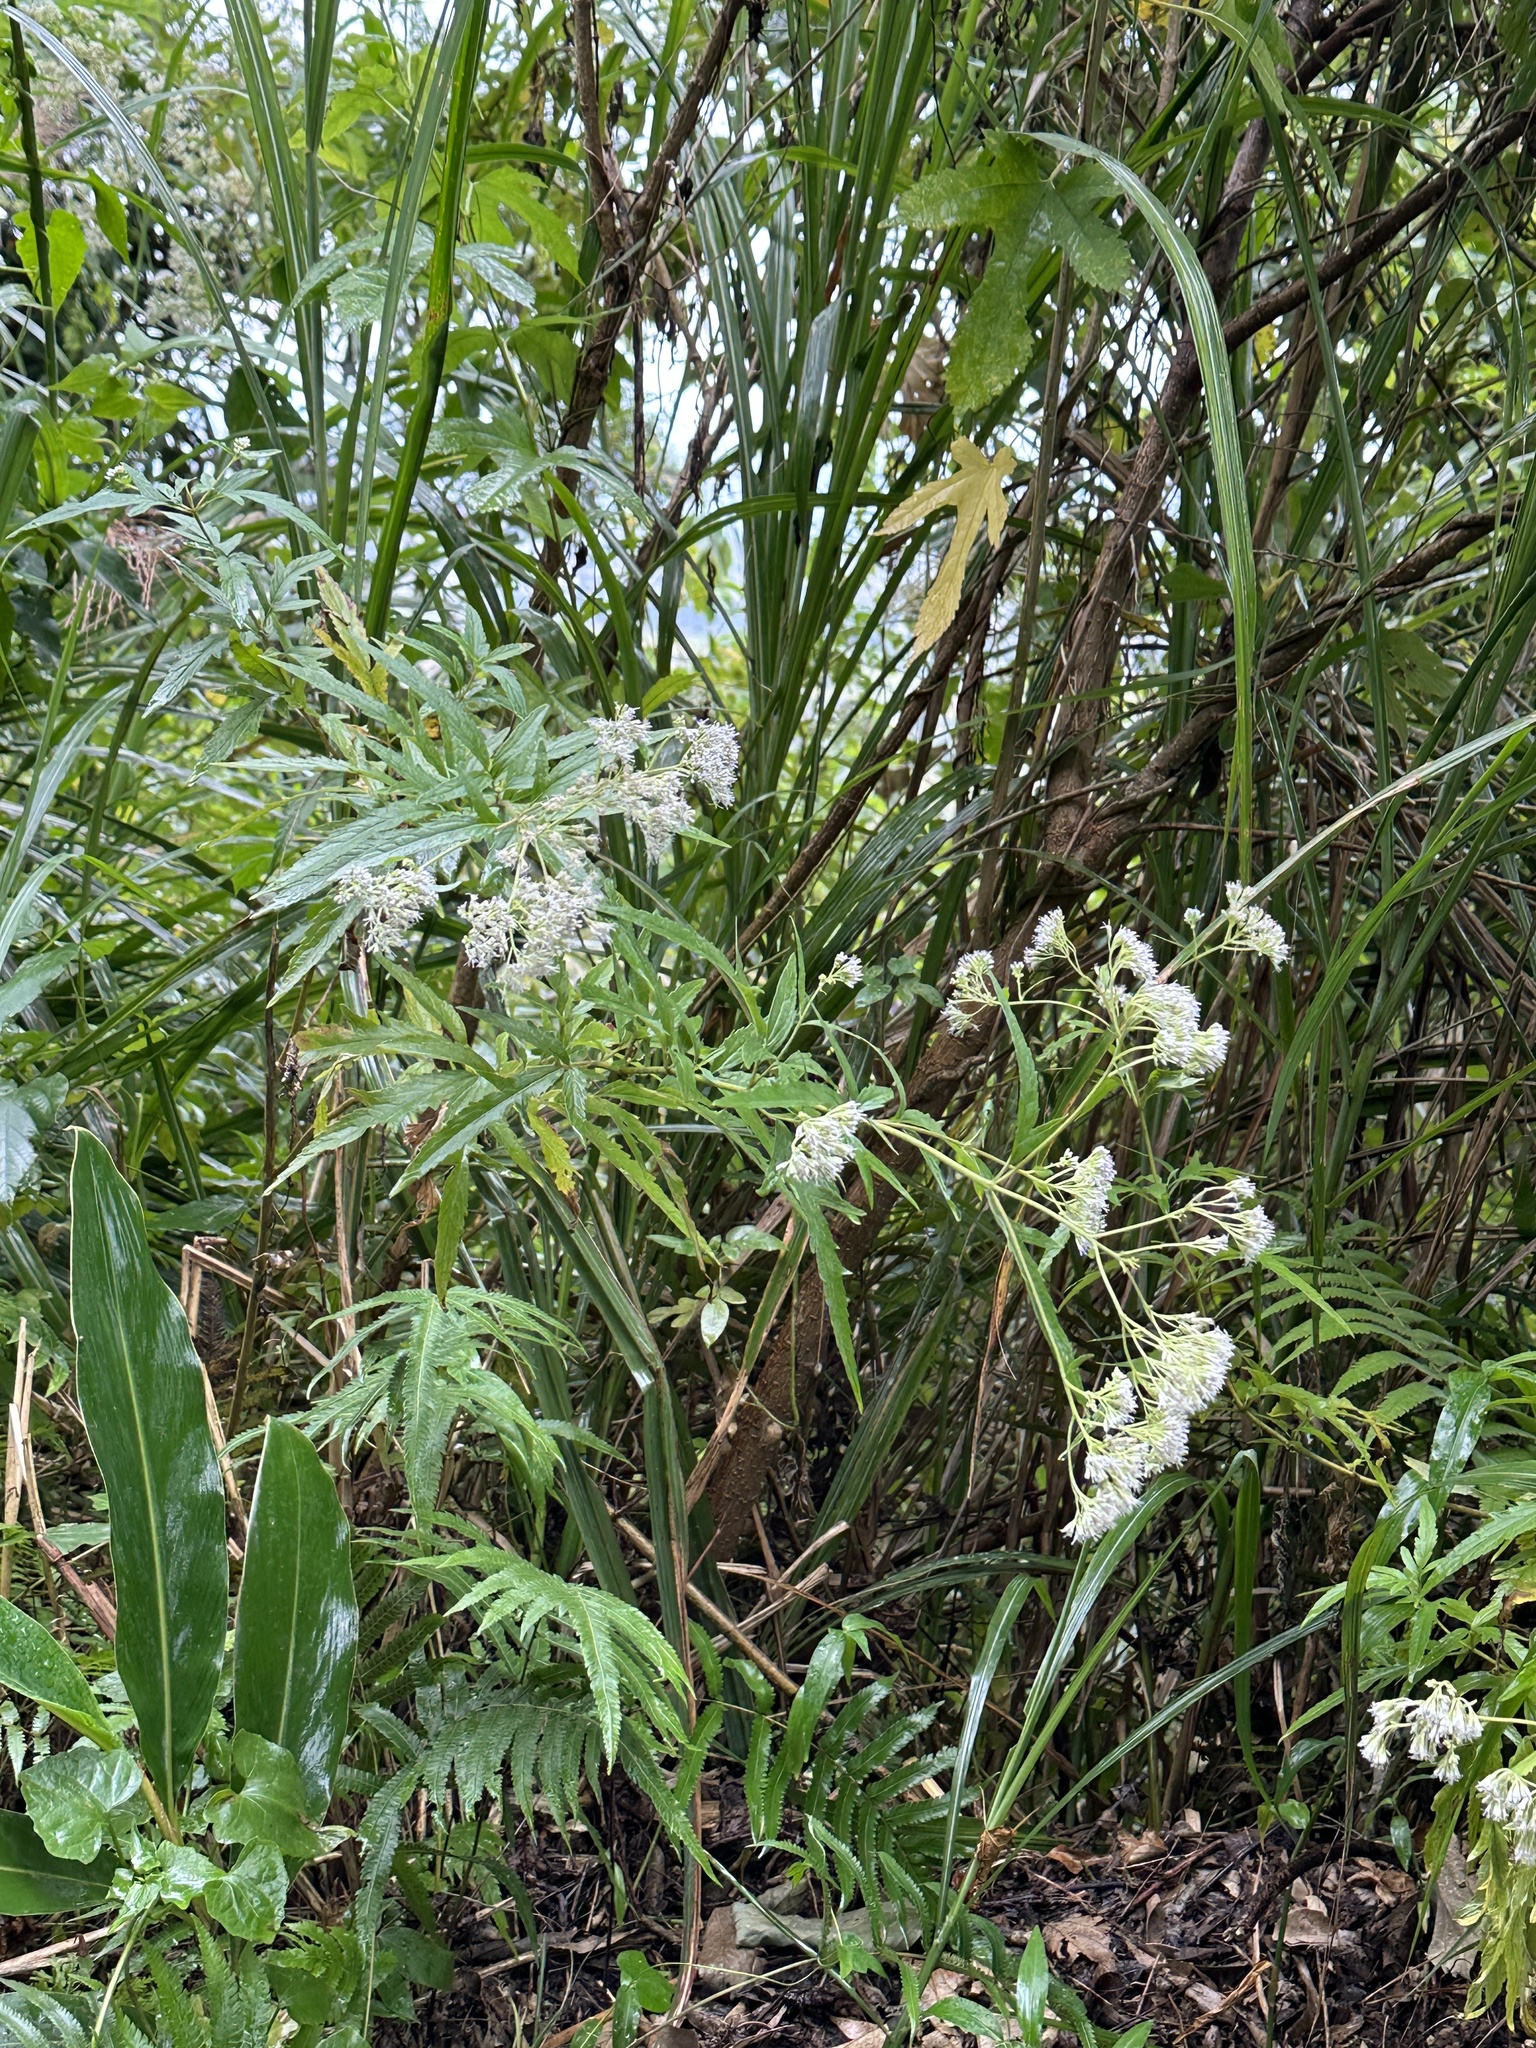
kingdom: Plantae
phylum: Tracheophyta
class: Magnoliopsida
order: Asterales
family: Asteraceae
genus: Eupatorium
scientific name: Eupatorium formosanum
